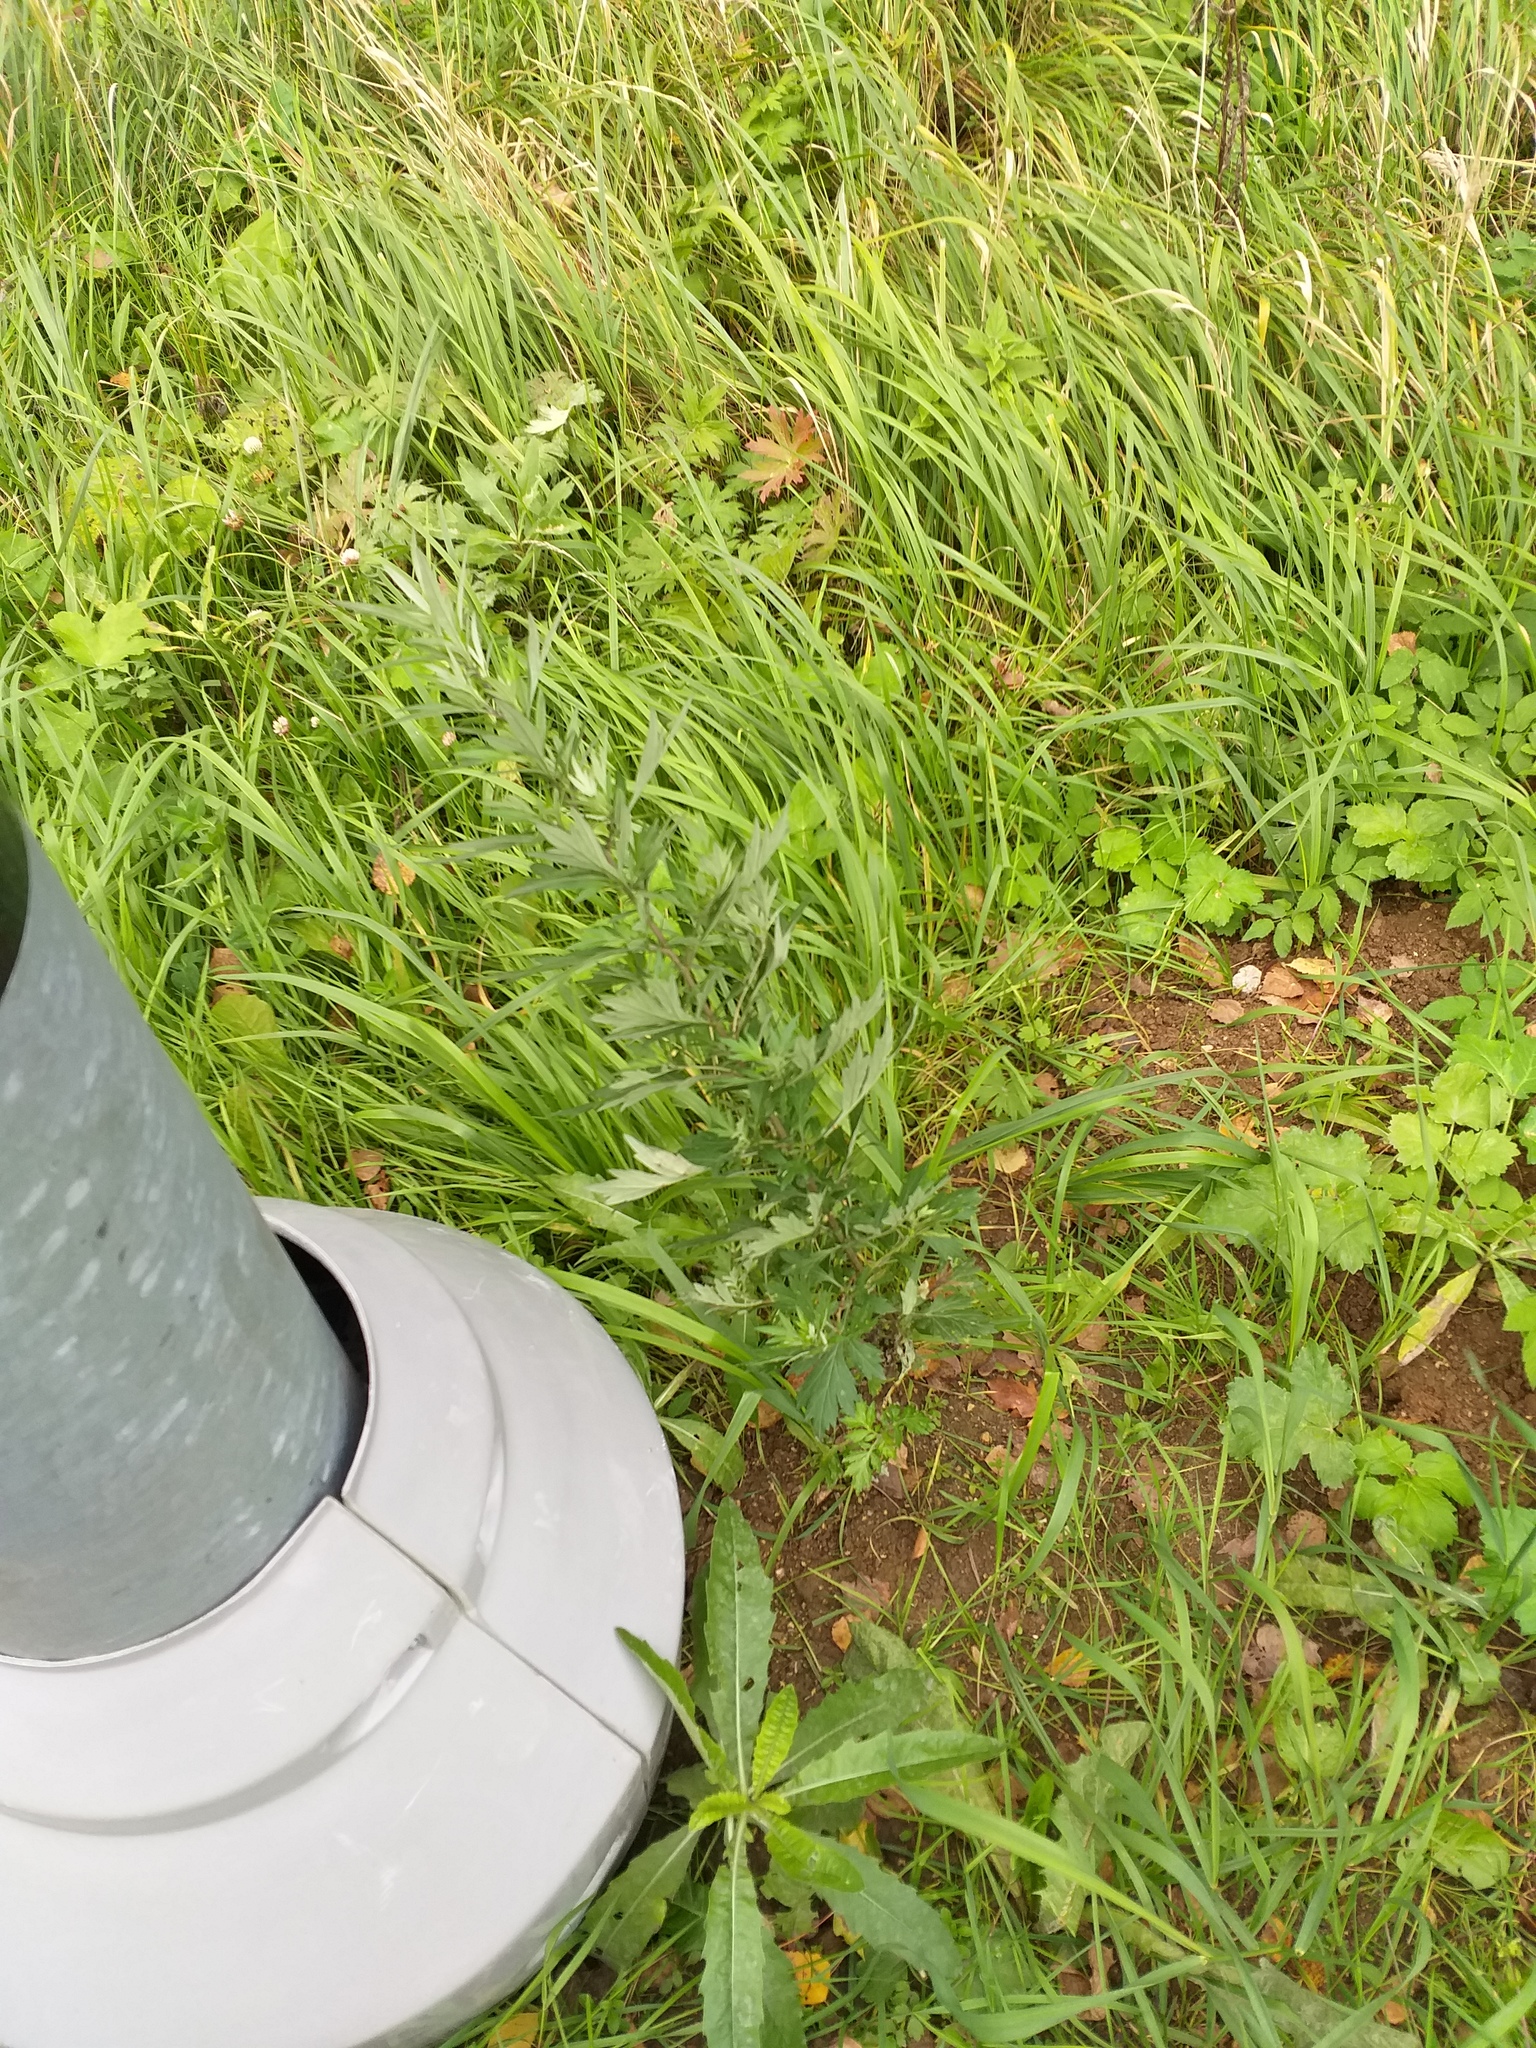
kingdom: Plantae
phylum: Tracheophyta
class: Magnoliopsida
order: Asterales
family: Asteraceae
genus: Artemisia
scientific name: Artemisia vulgaris
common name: Mugwort
